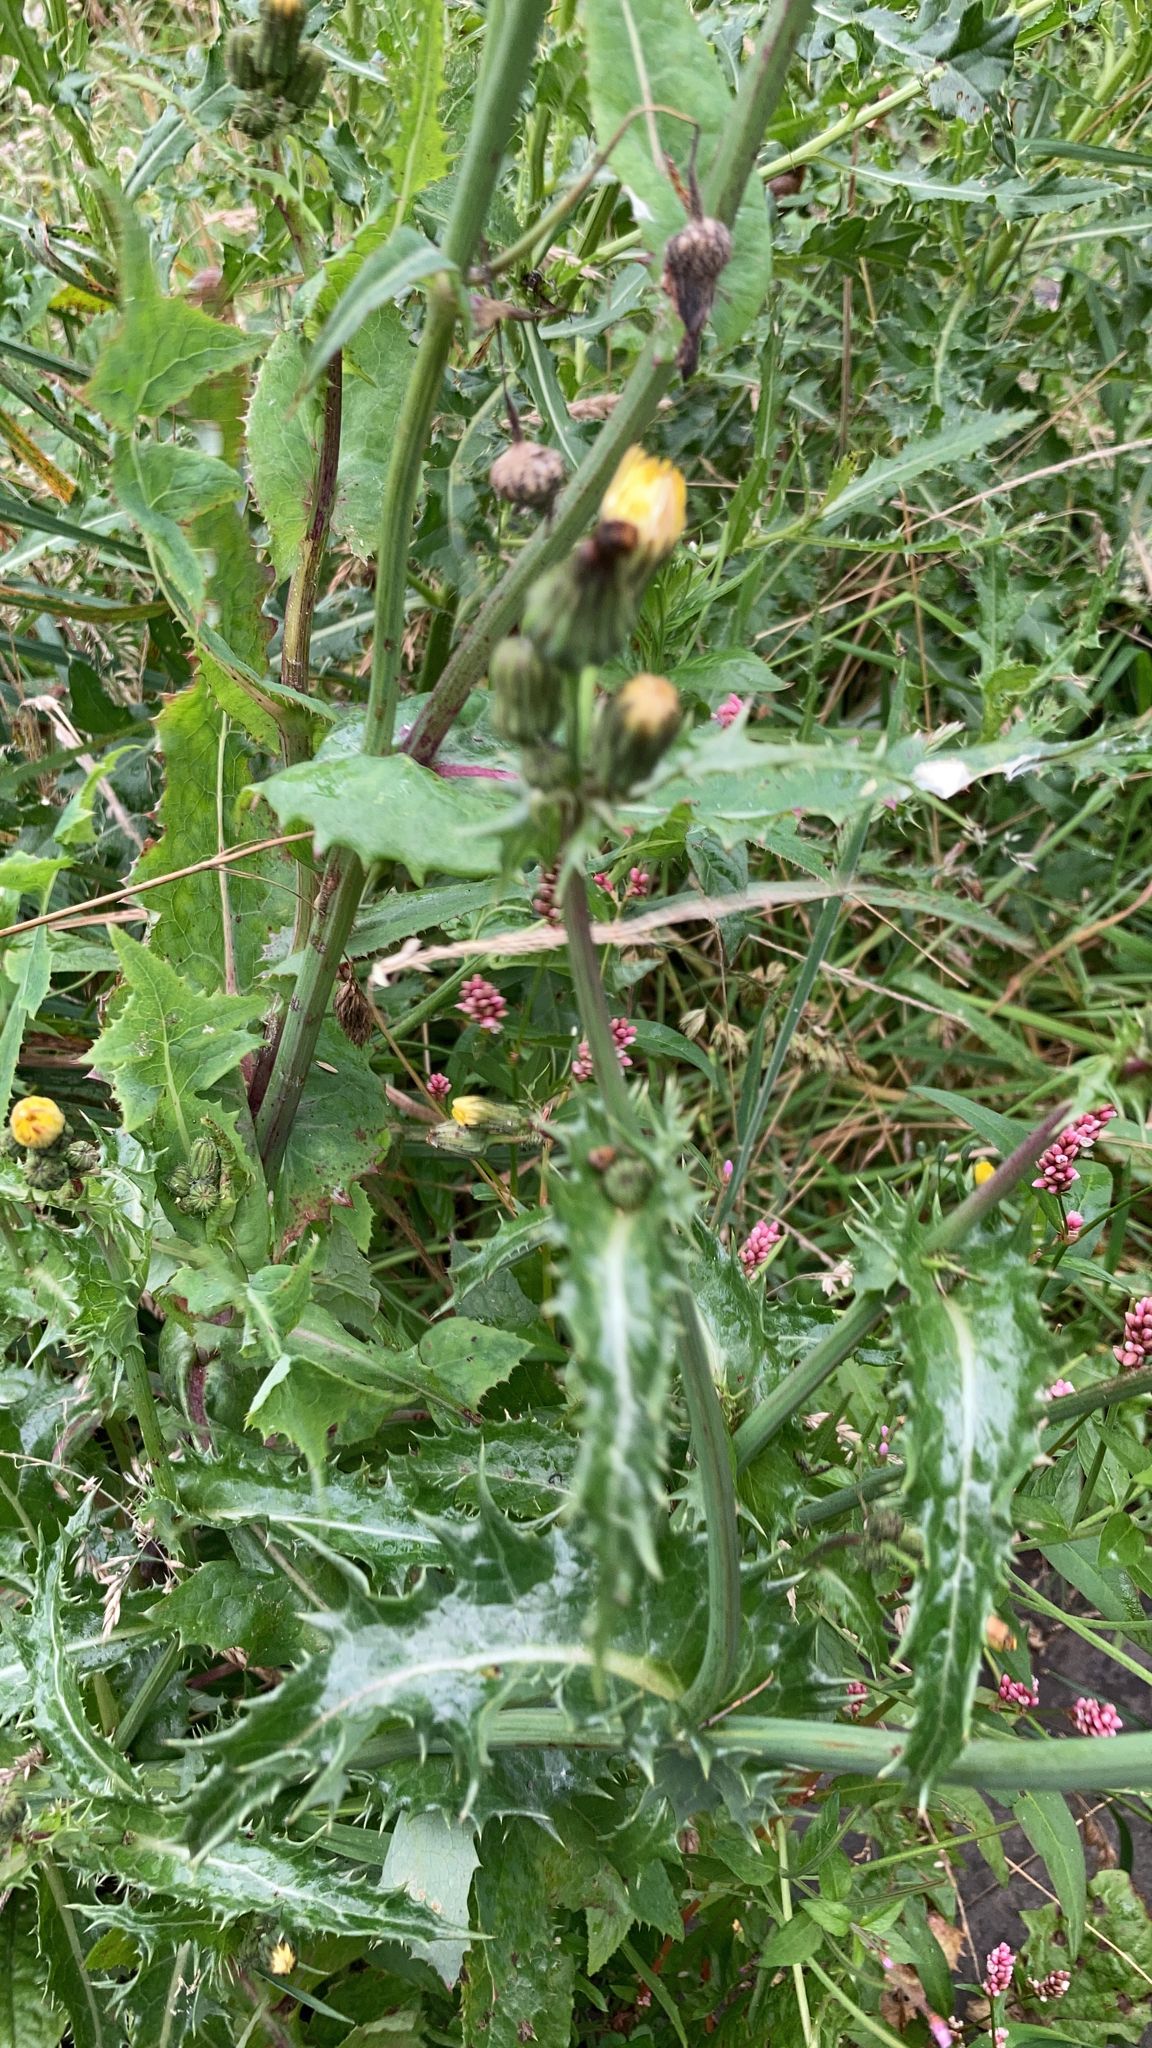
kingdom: Plantae
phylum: Tracheophyta
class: Magnoliopsida
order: Asterales
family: Asteraceae
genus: Sonchus
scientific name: Sonchus asper
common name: Prickly sow-thistle
